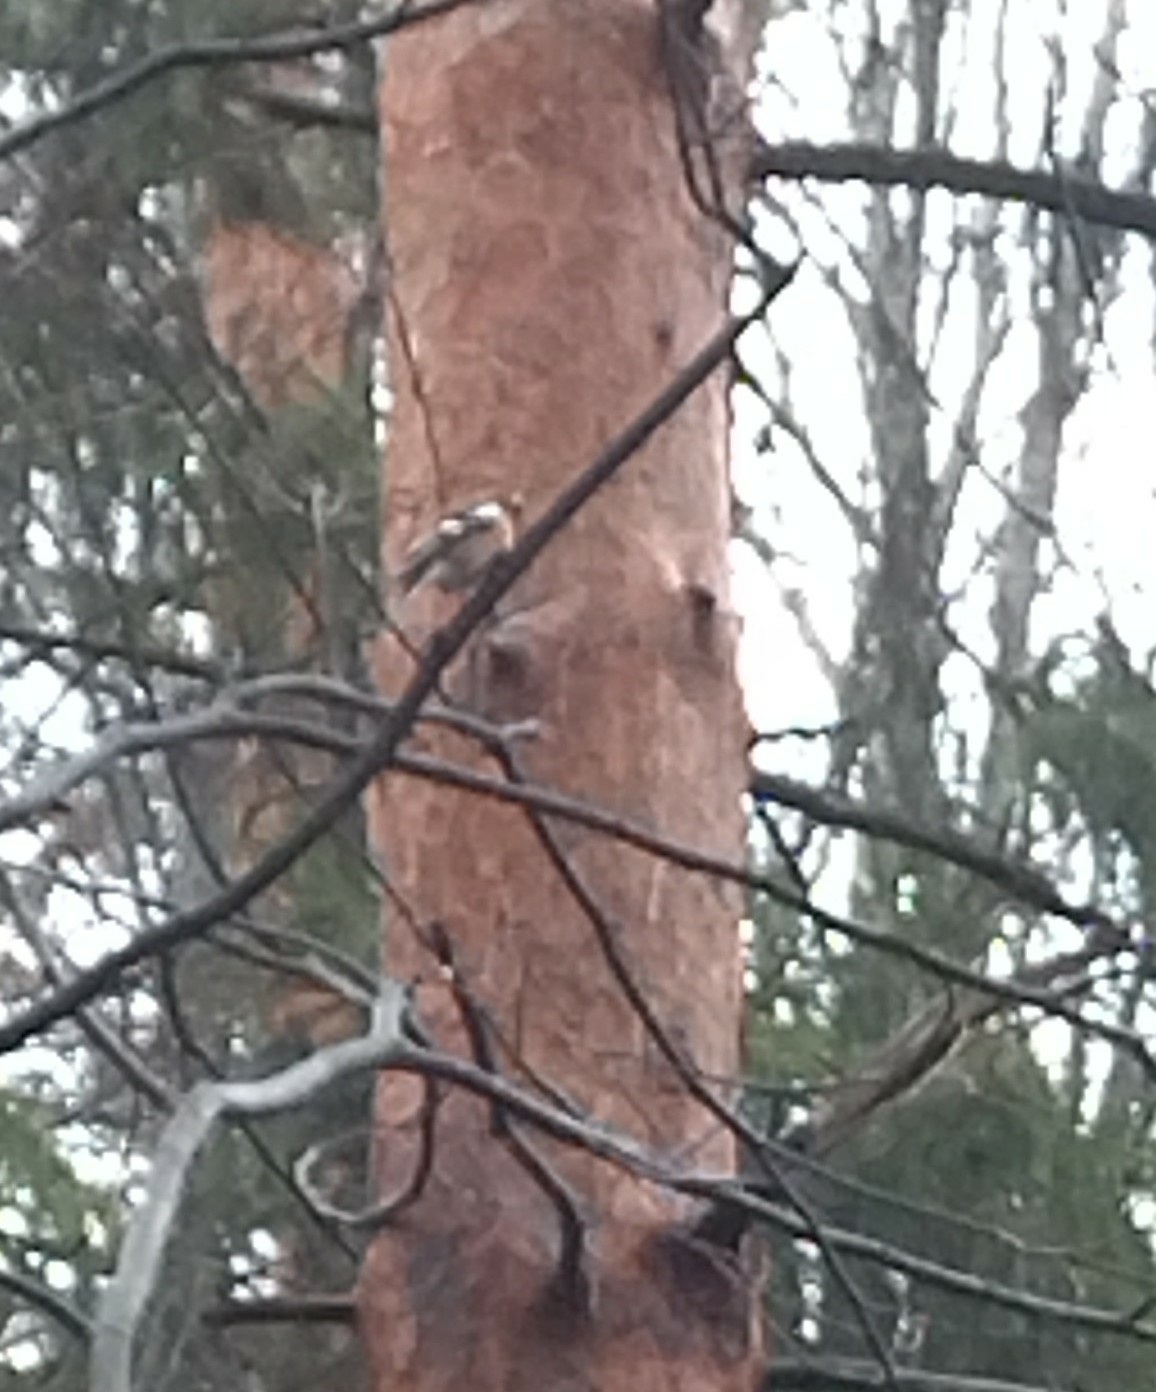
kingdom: Animalia
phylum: Chordata
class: Aves
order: Passeriformes
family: Fringillidae
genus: Fringilla
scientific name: Fringilla coelebs
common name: Common chaffinch
